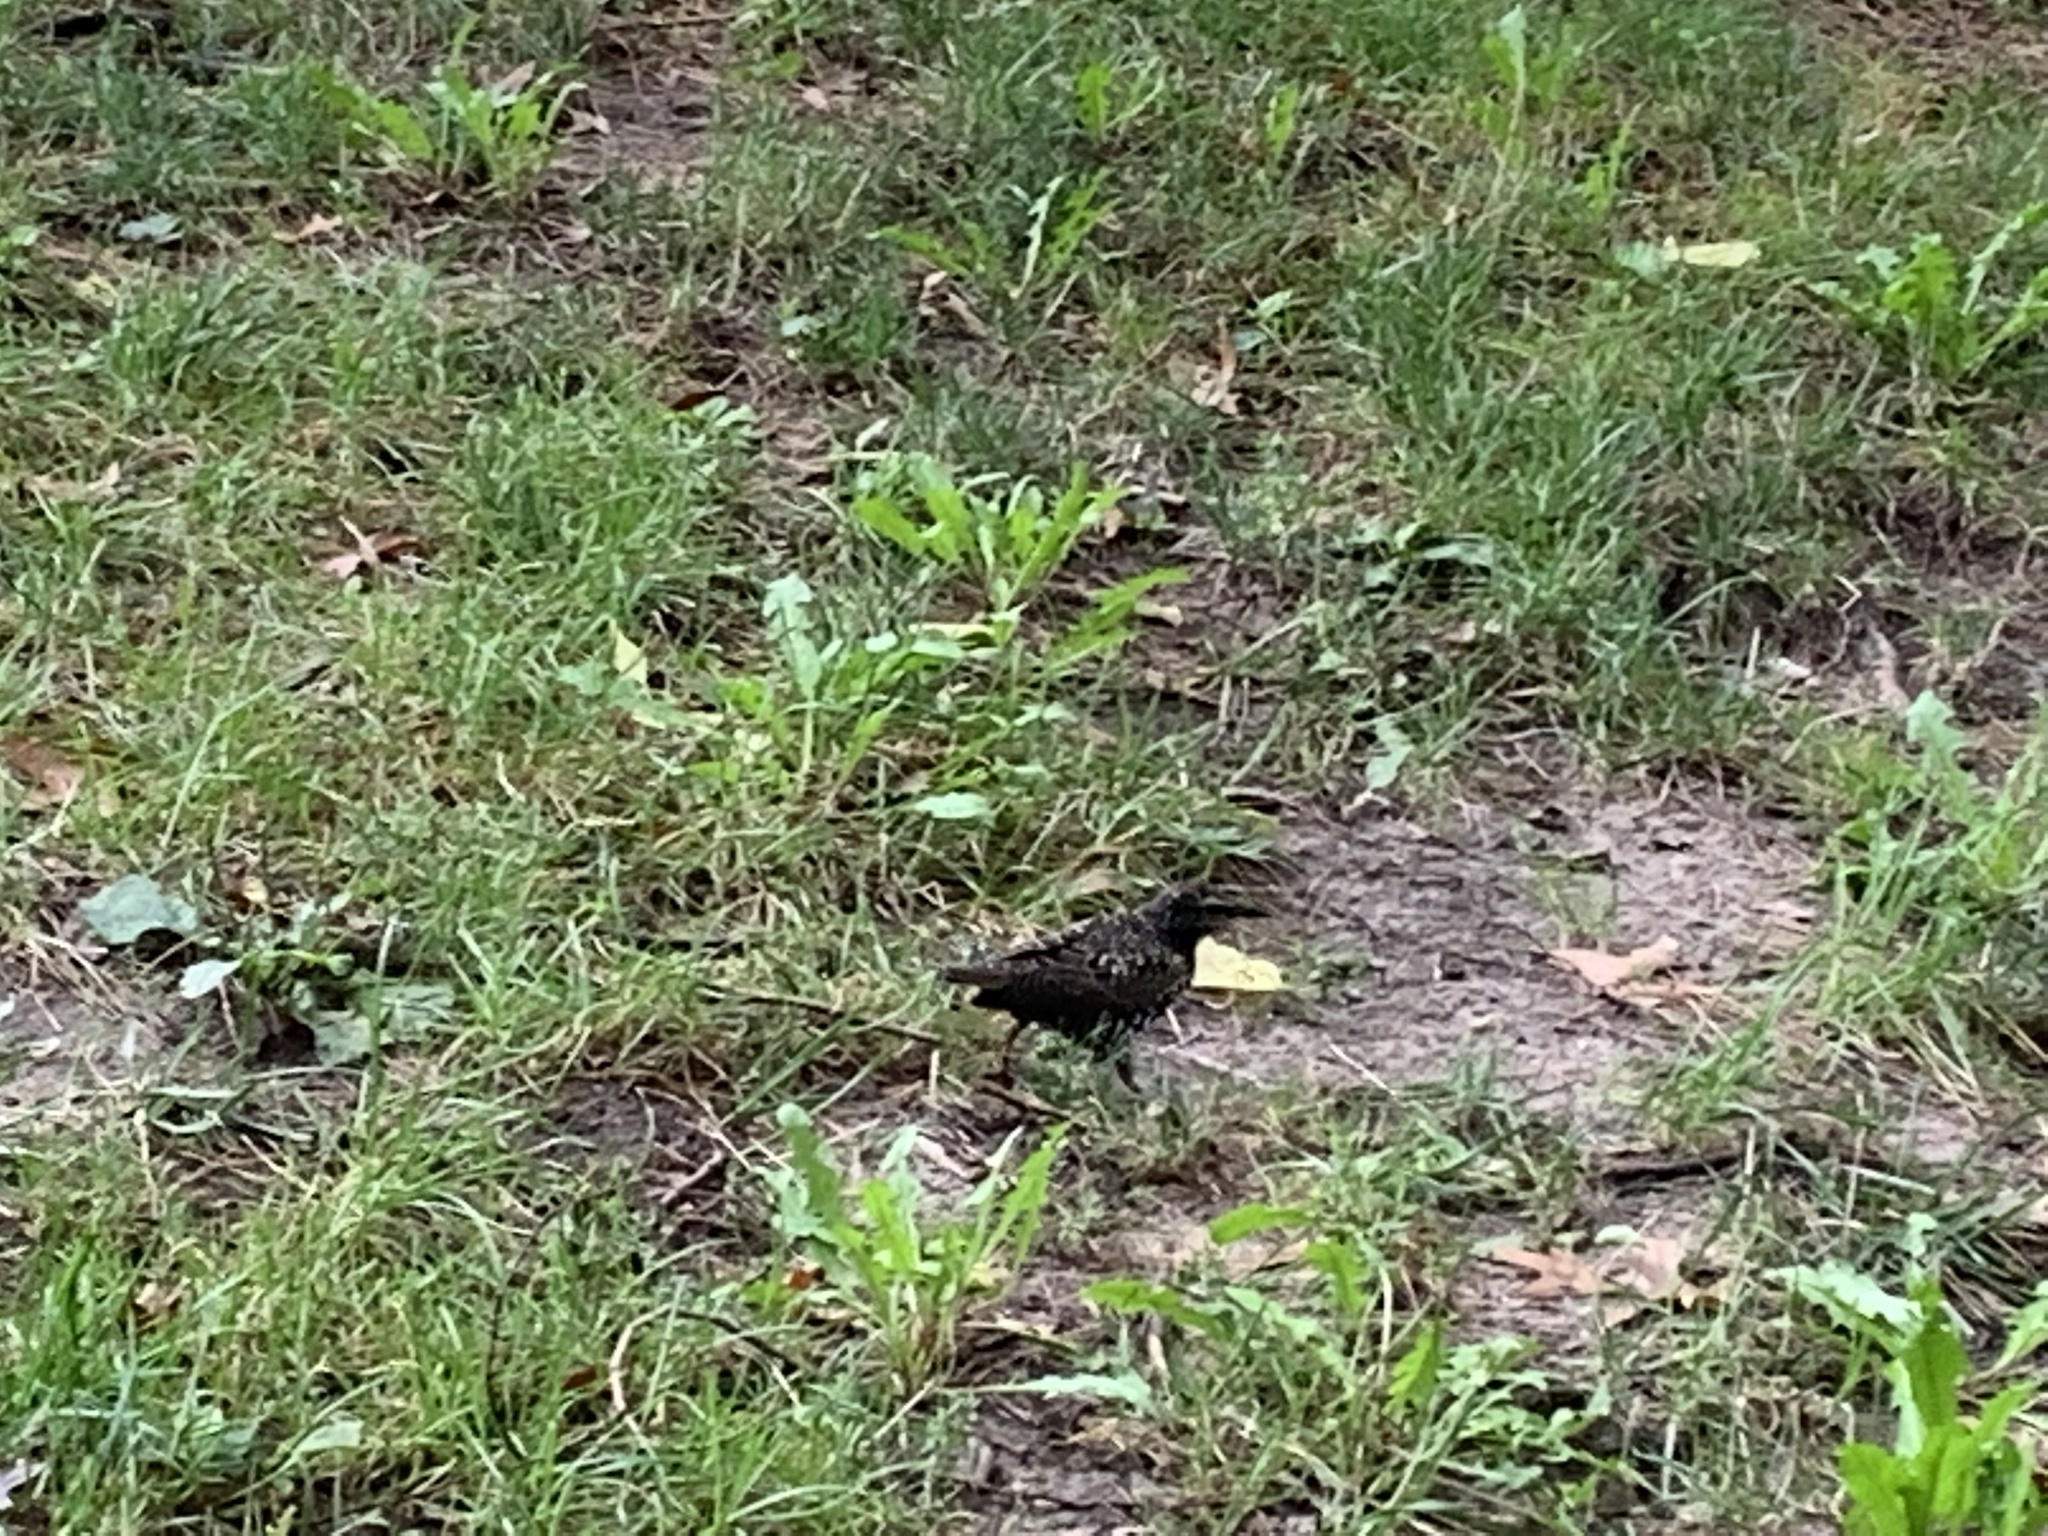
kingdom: Animalia
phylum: Chordata
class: Aves
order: Passeriformes
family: Sturnidae
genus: Sturnus
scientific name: Sturnus vulgaris
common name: Common starling
